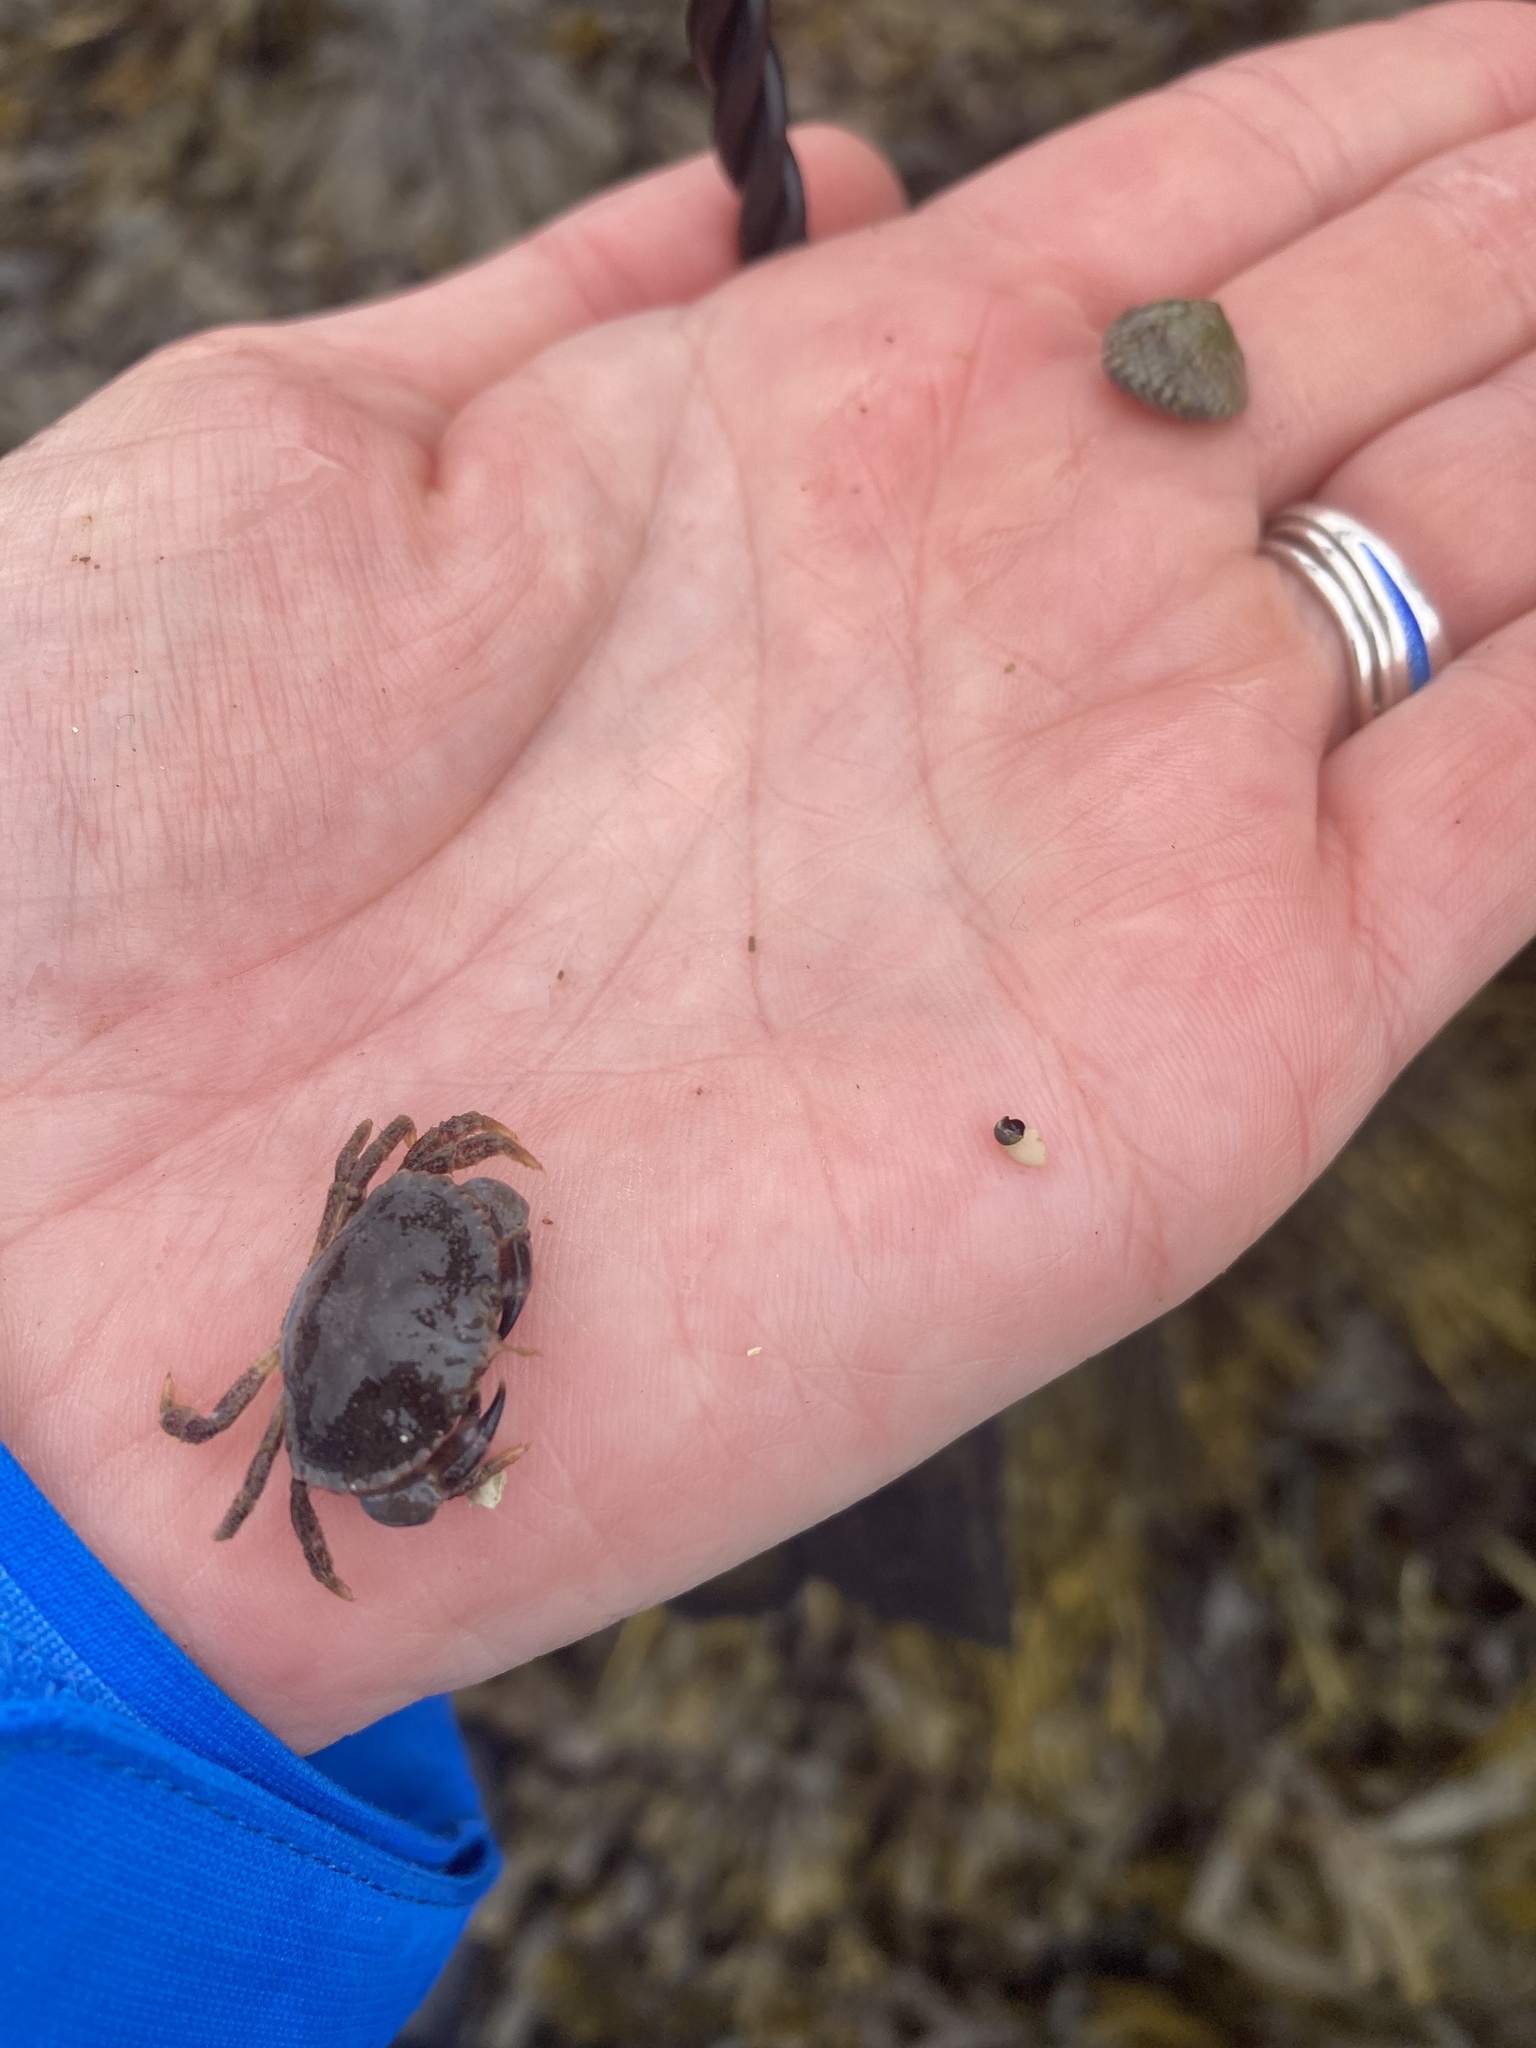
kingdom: Animalia
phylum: Arthropoda
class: Malacostraca
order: Decapoda
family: Cancridae
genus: Cancer
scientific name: Cancer pagurus
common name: Edible crab
